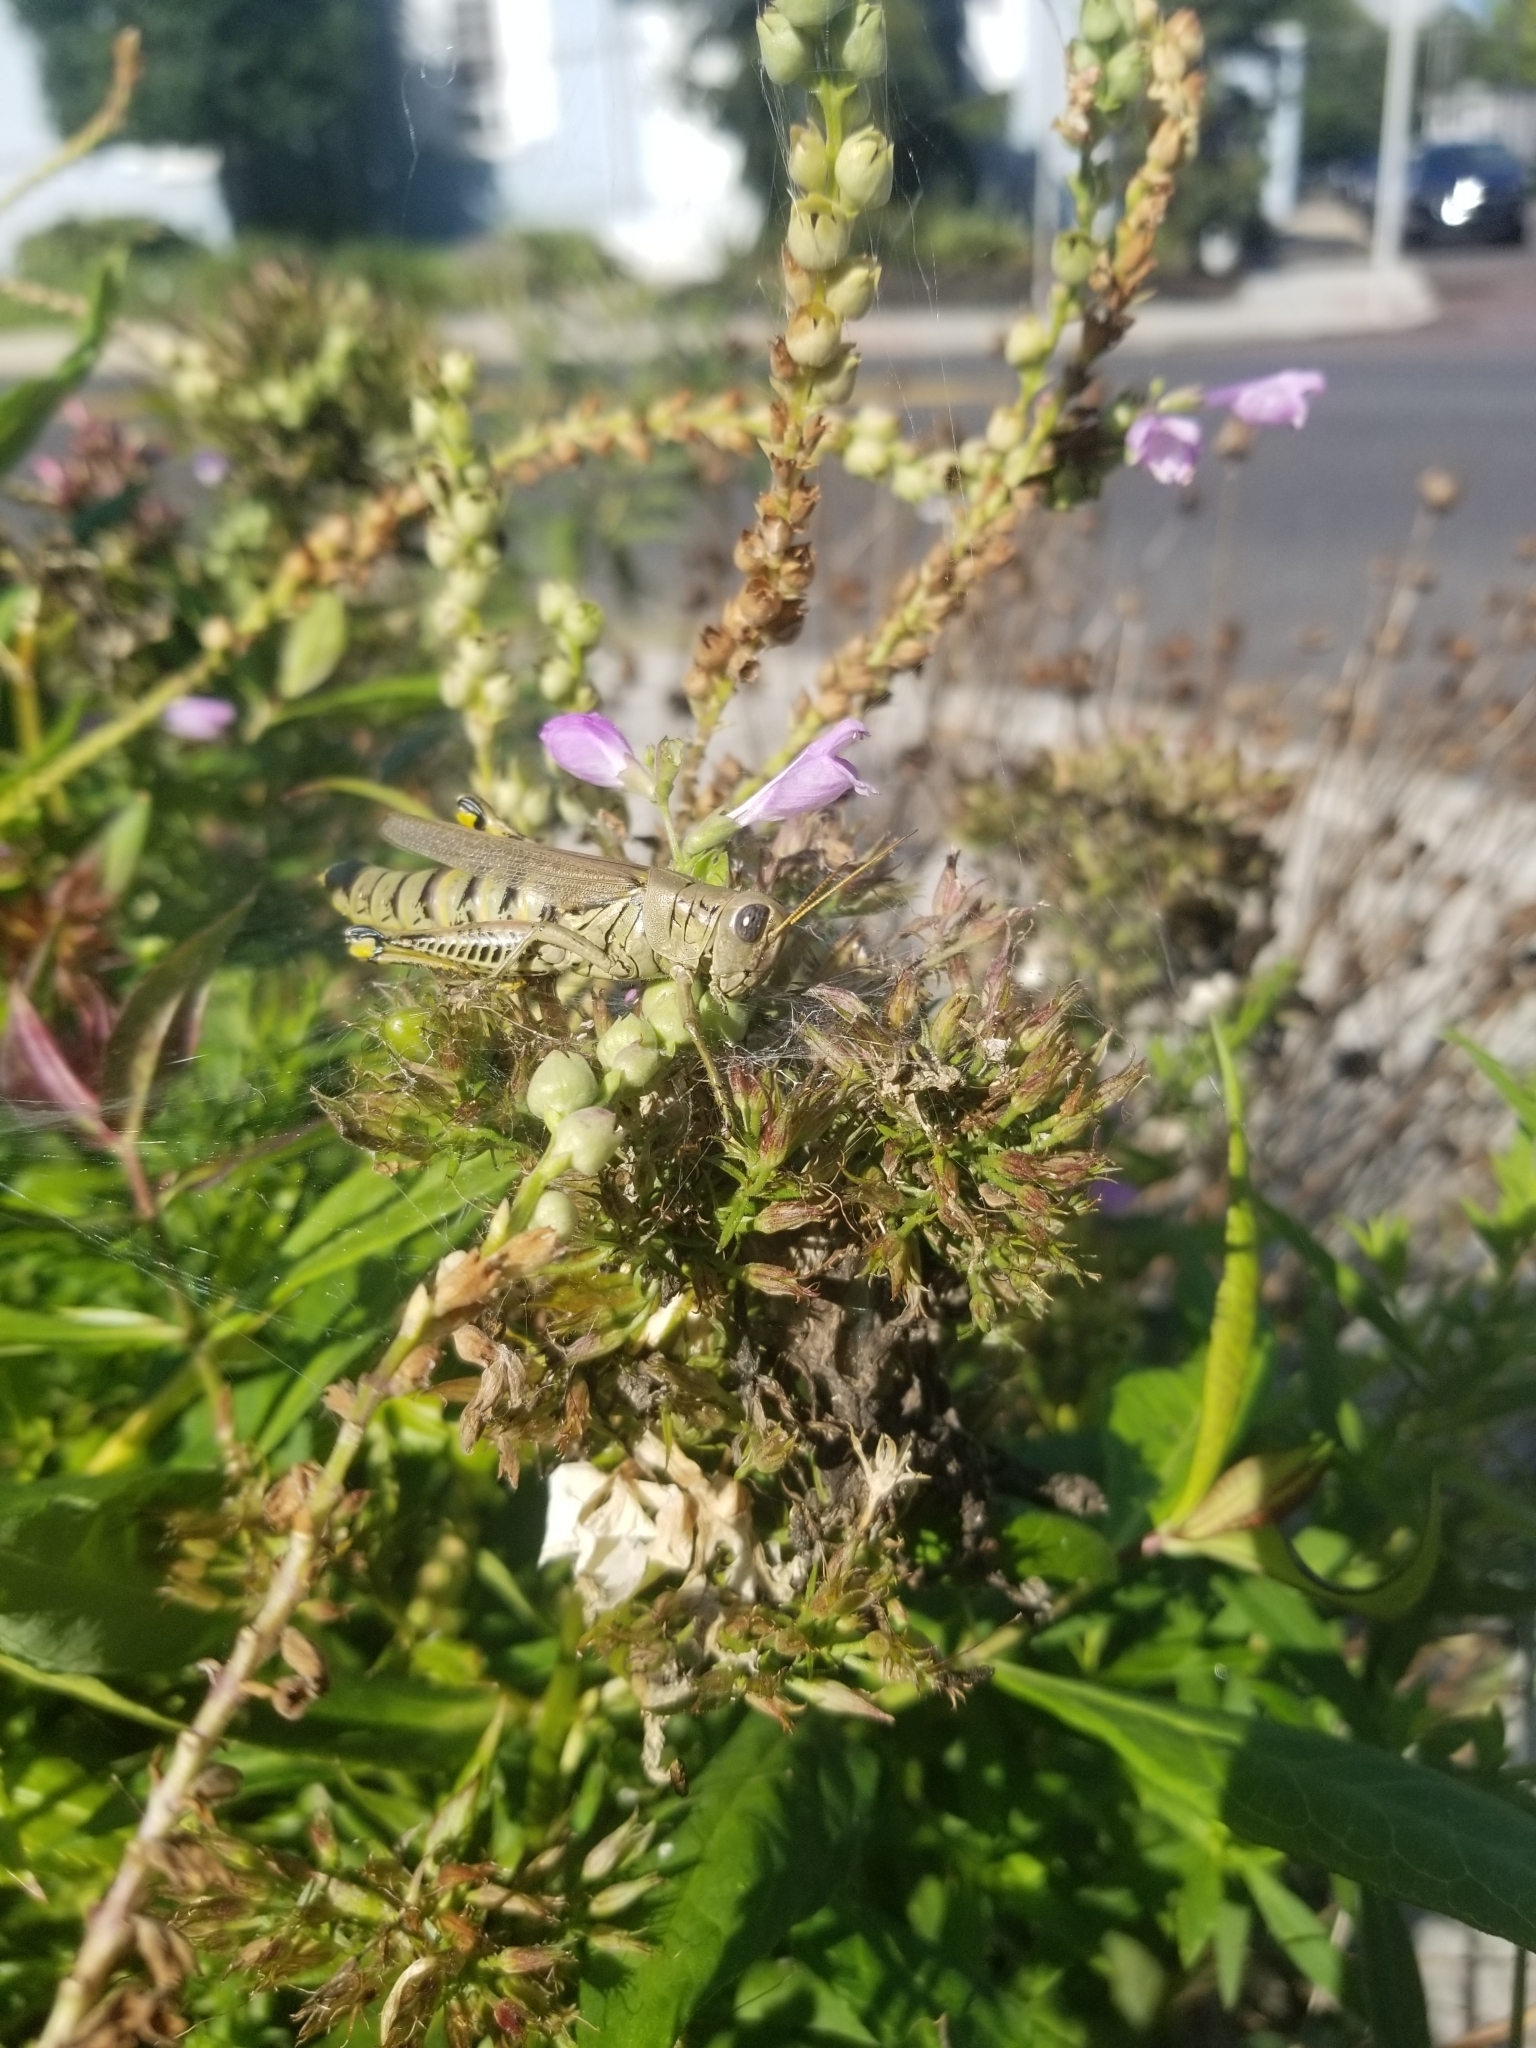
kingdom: Animalia
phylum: Arthropoda
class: Insecta
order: Orthoptera
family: Acrididae
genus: Melanoplus
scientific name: Melanoplus differentialis
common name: Differential grasshopper
